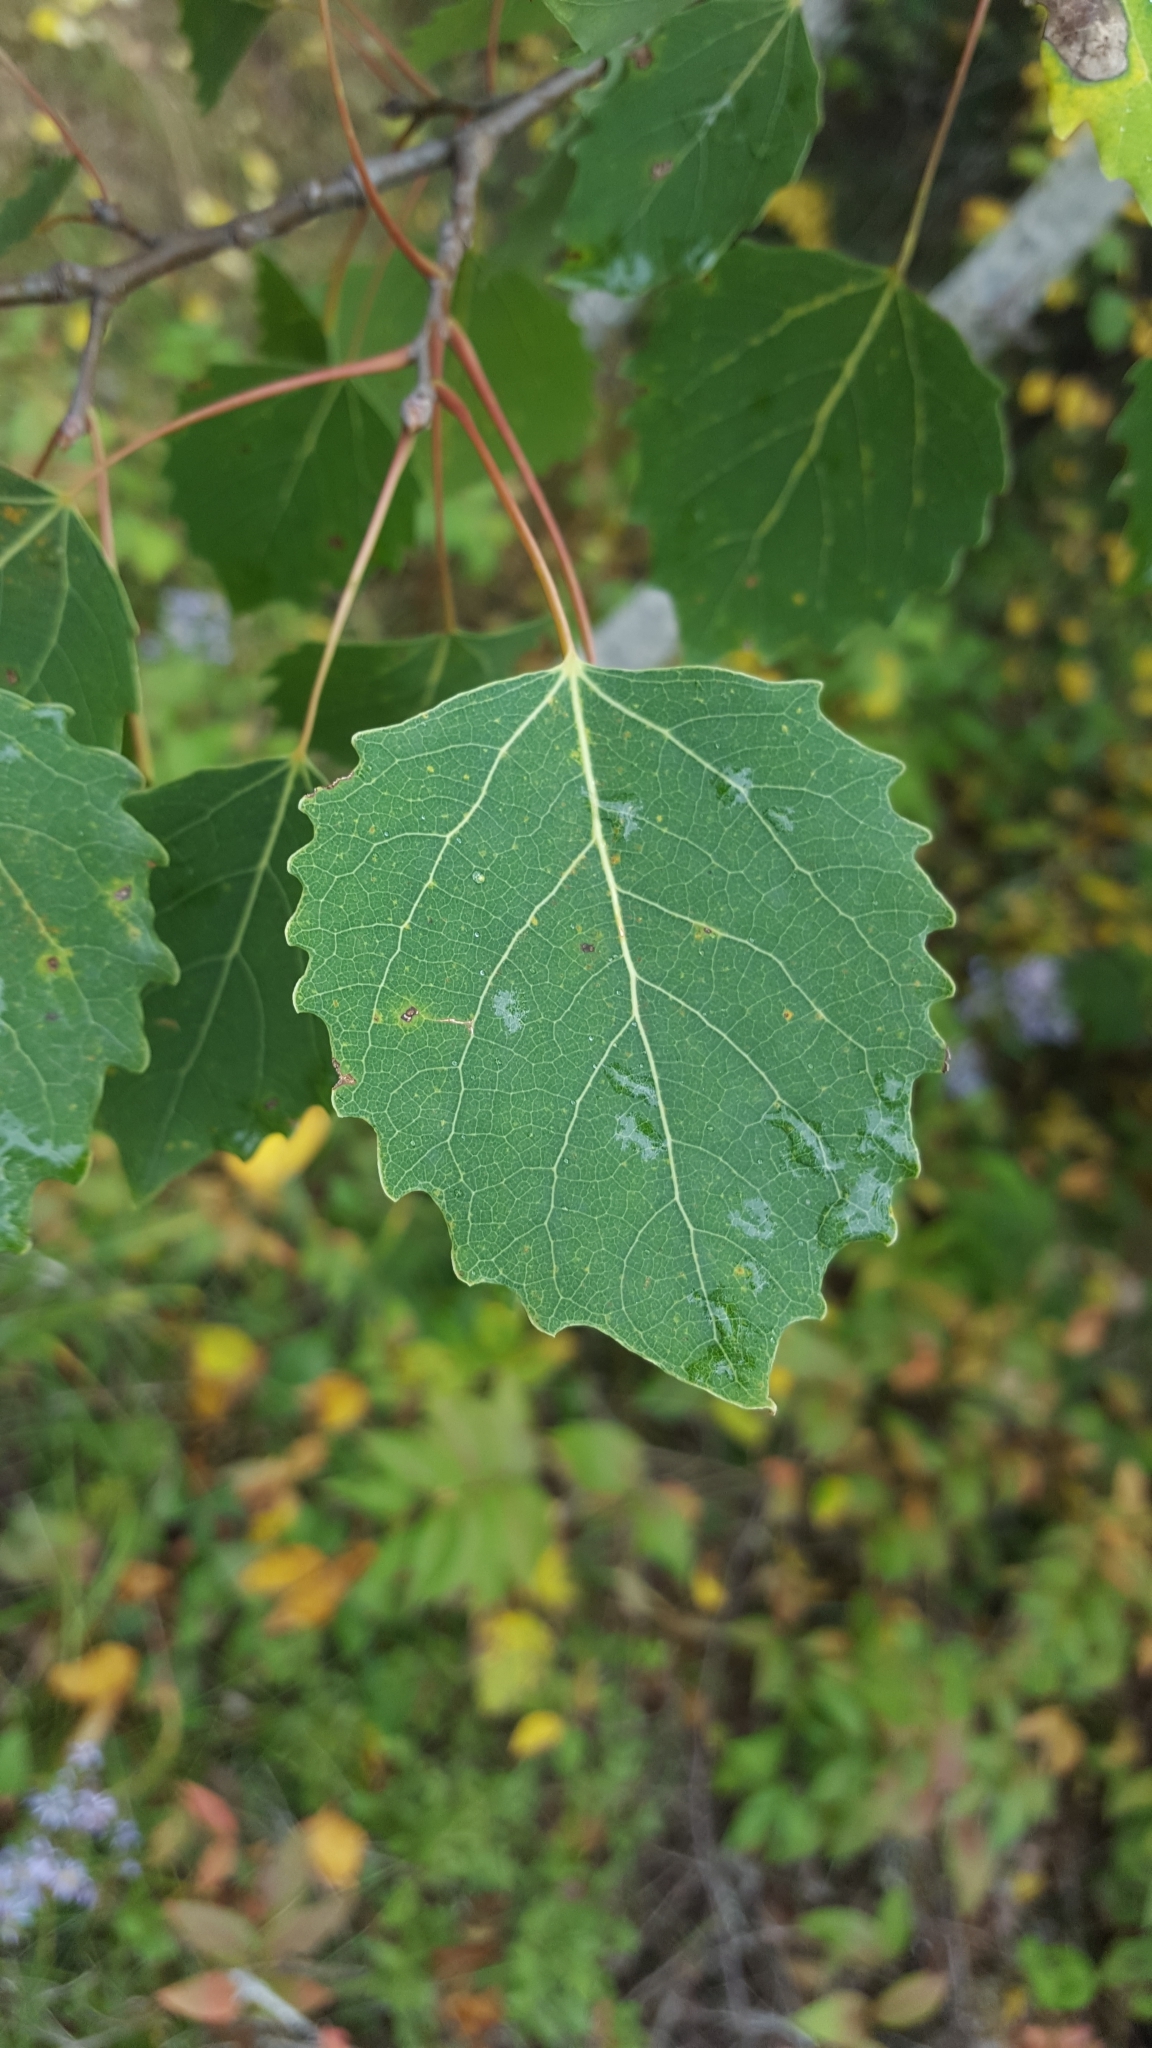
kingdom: Plantae
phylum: Tracheophyta
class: Magnoliopsida
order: Malpighiales
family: Salicaceae
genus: Populus
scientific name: Populus grandidentata
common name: Bigtooth aspen
